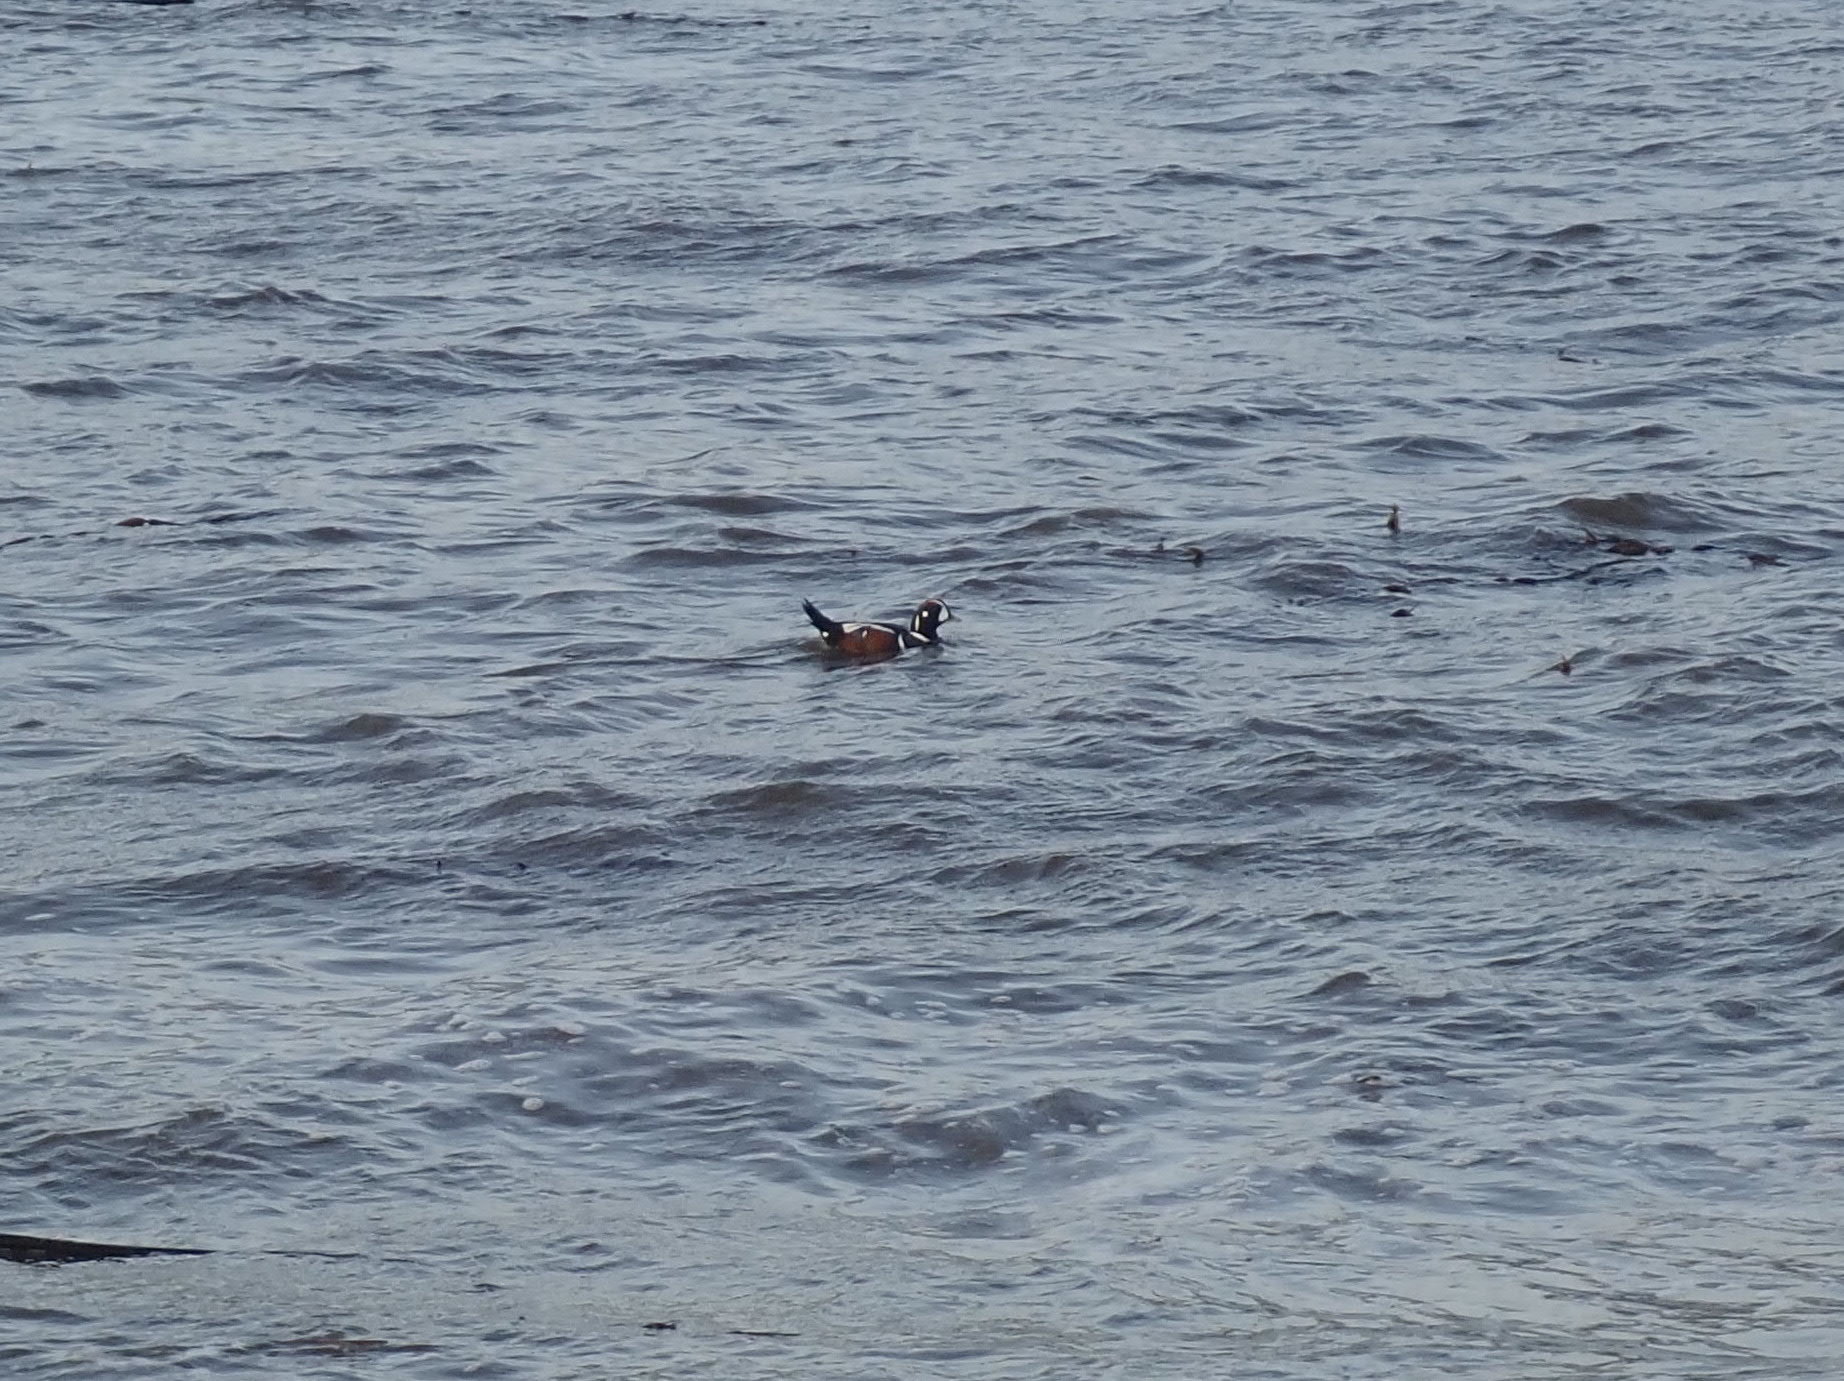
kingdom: Animalia
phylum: Chordata
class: Aves
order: Anseriformes
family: Anatidae
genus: Histrionicus
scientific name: Histrionicus histrionicus
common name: Harlequin duck
